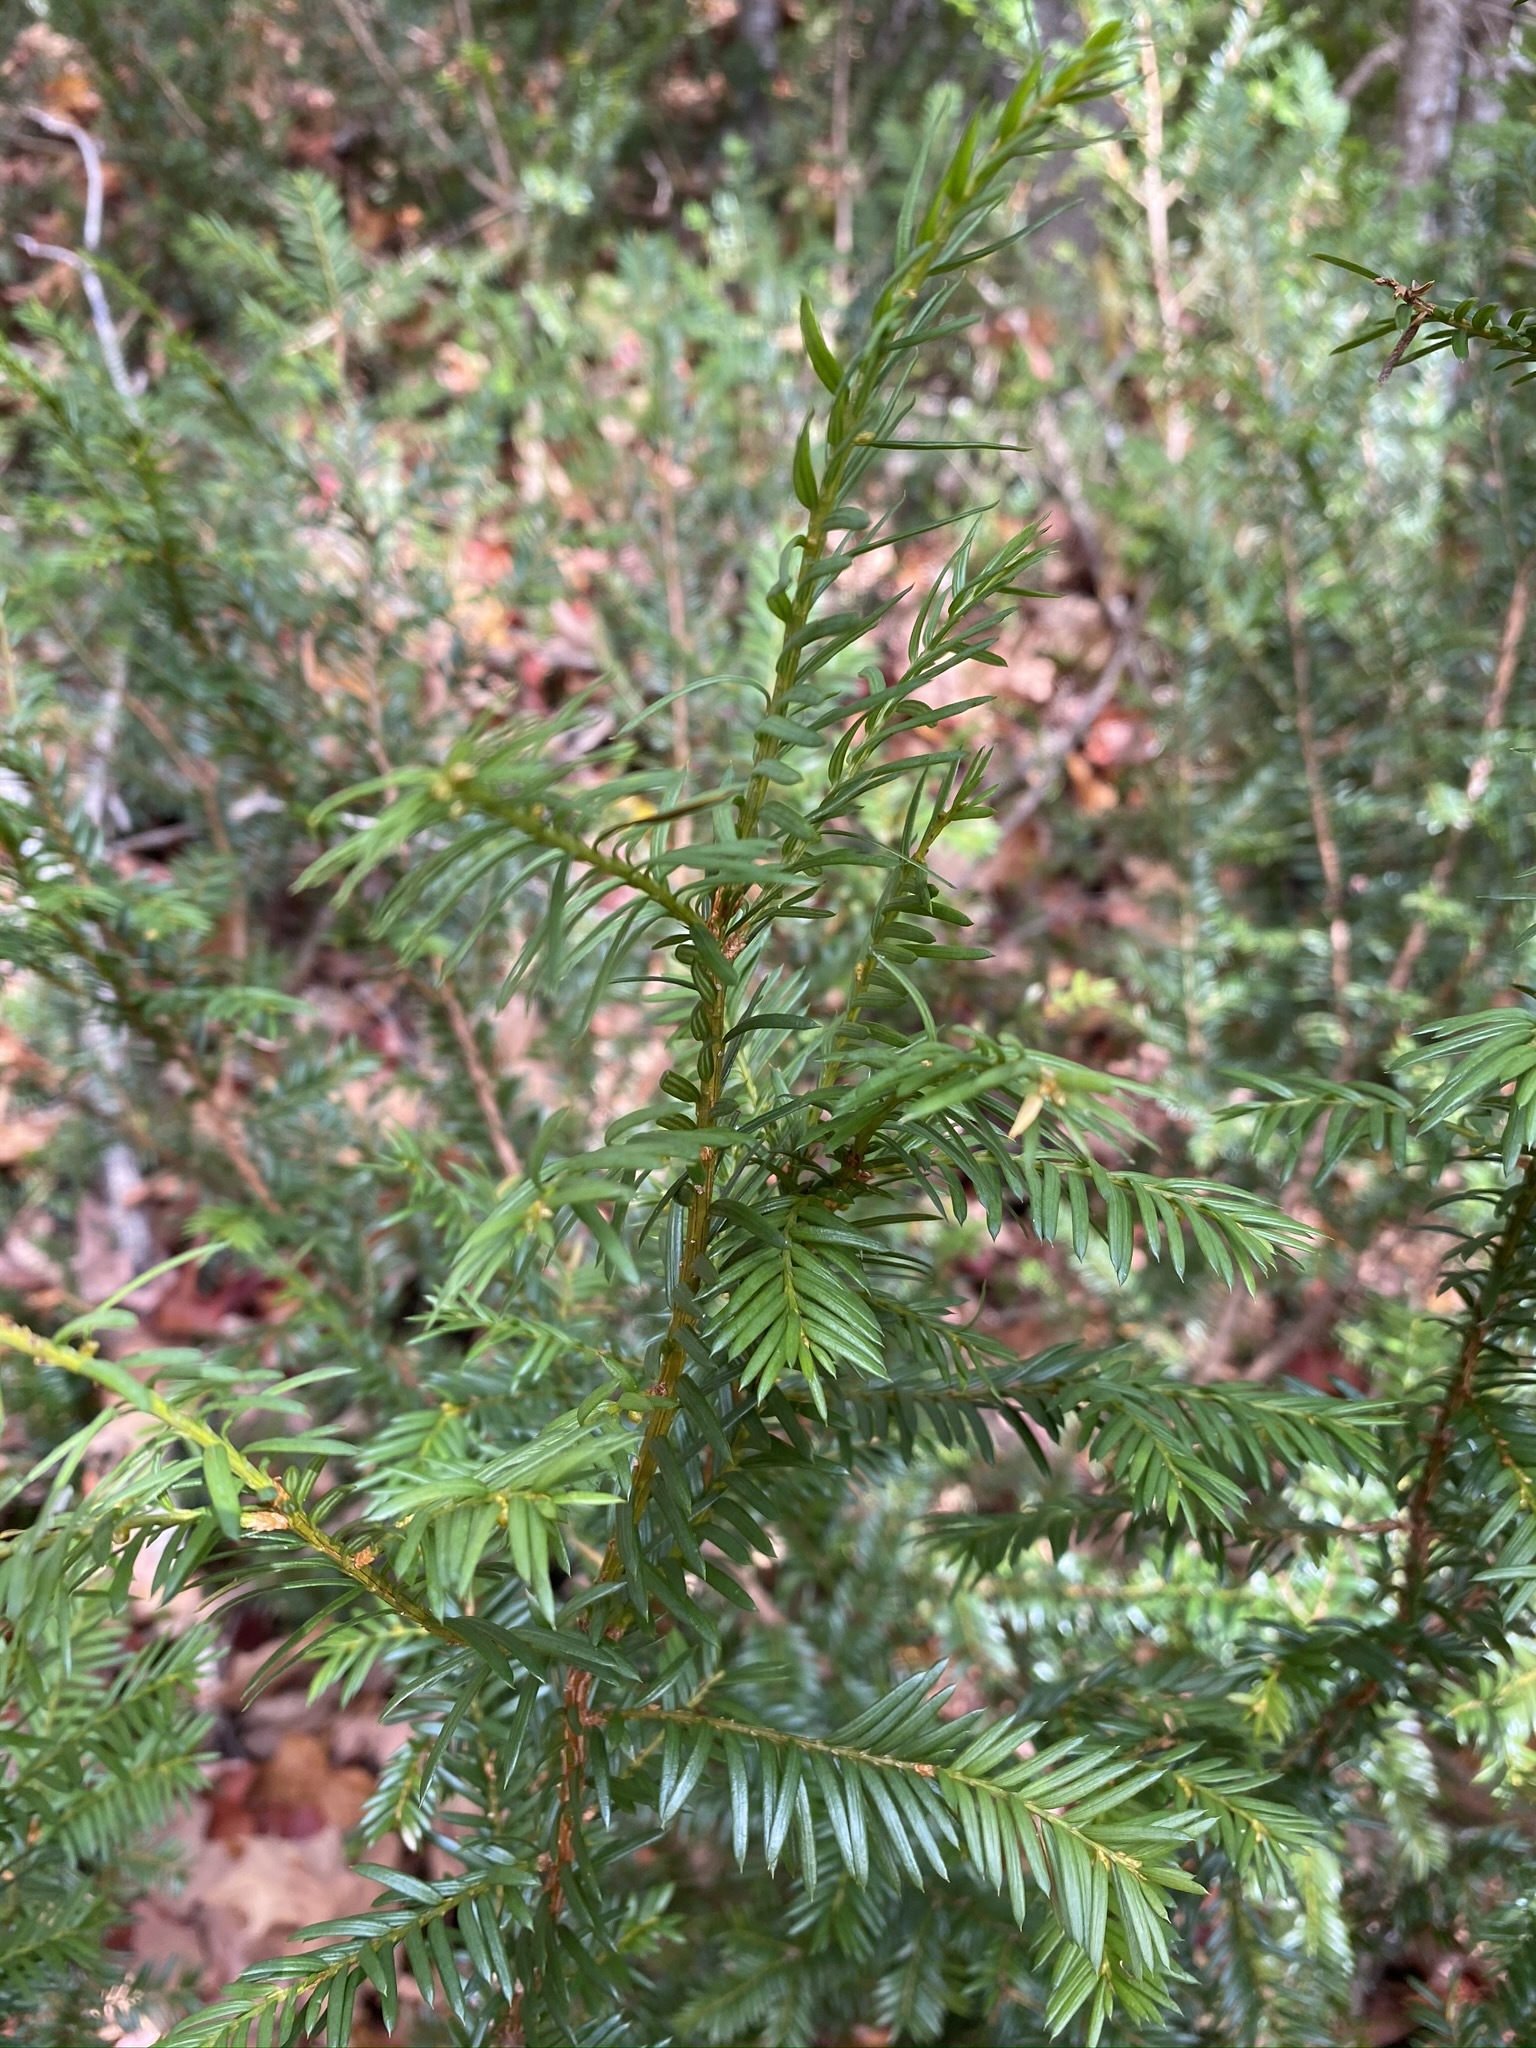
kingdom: Plantae
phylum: Tracheophyta
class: Pinopsida
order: Pinales
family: Taxaceae
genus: Taxus
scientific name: Taxus canadensis
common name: American yew
